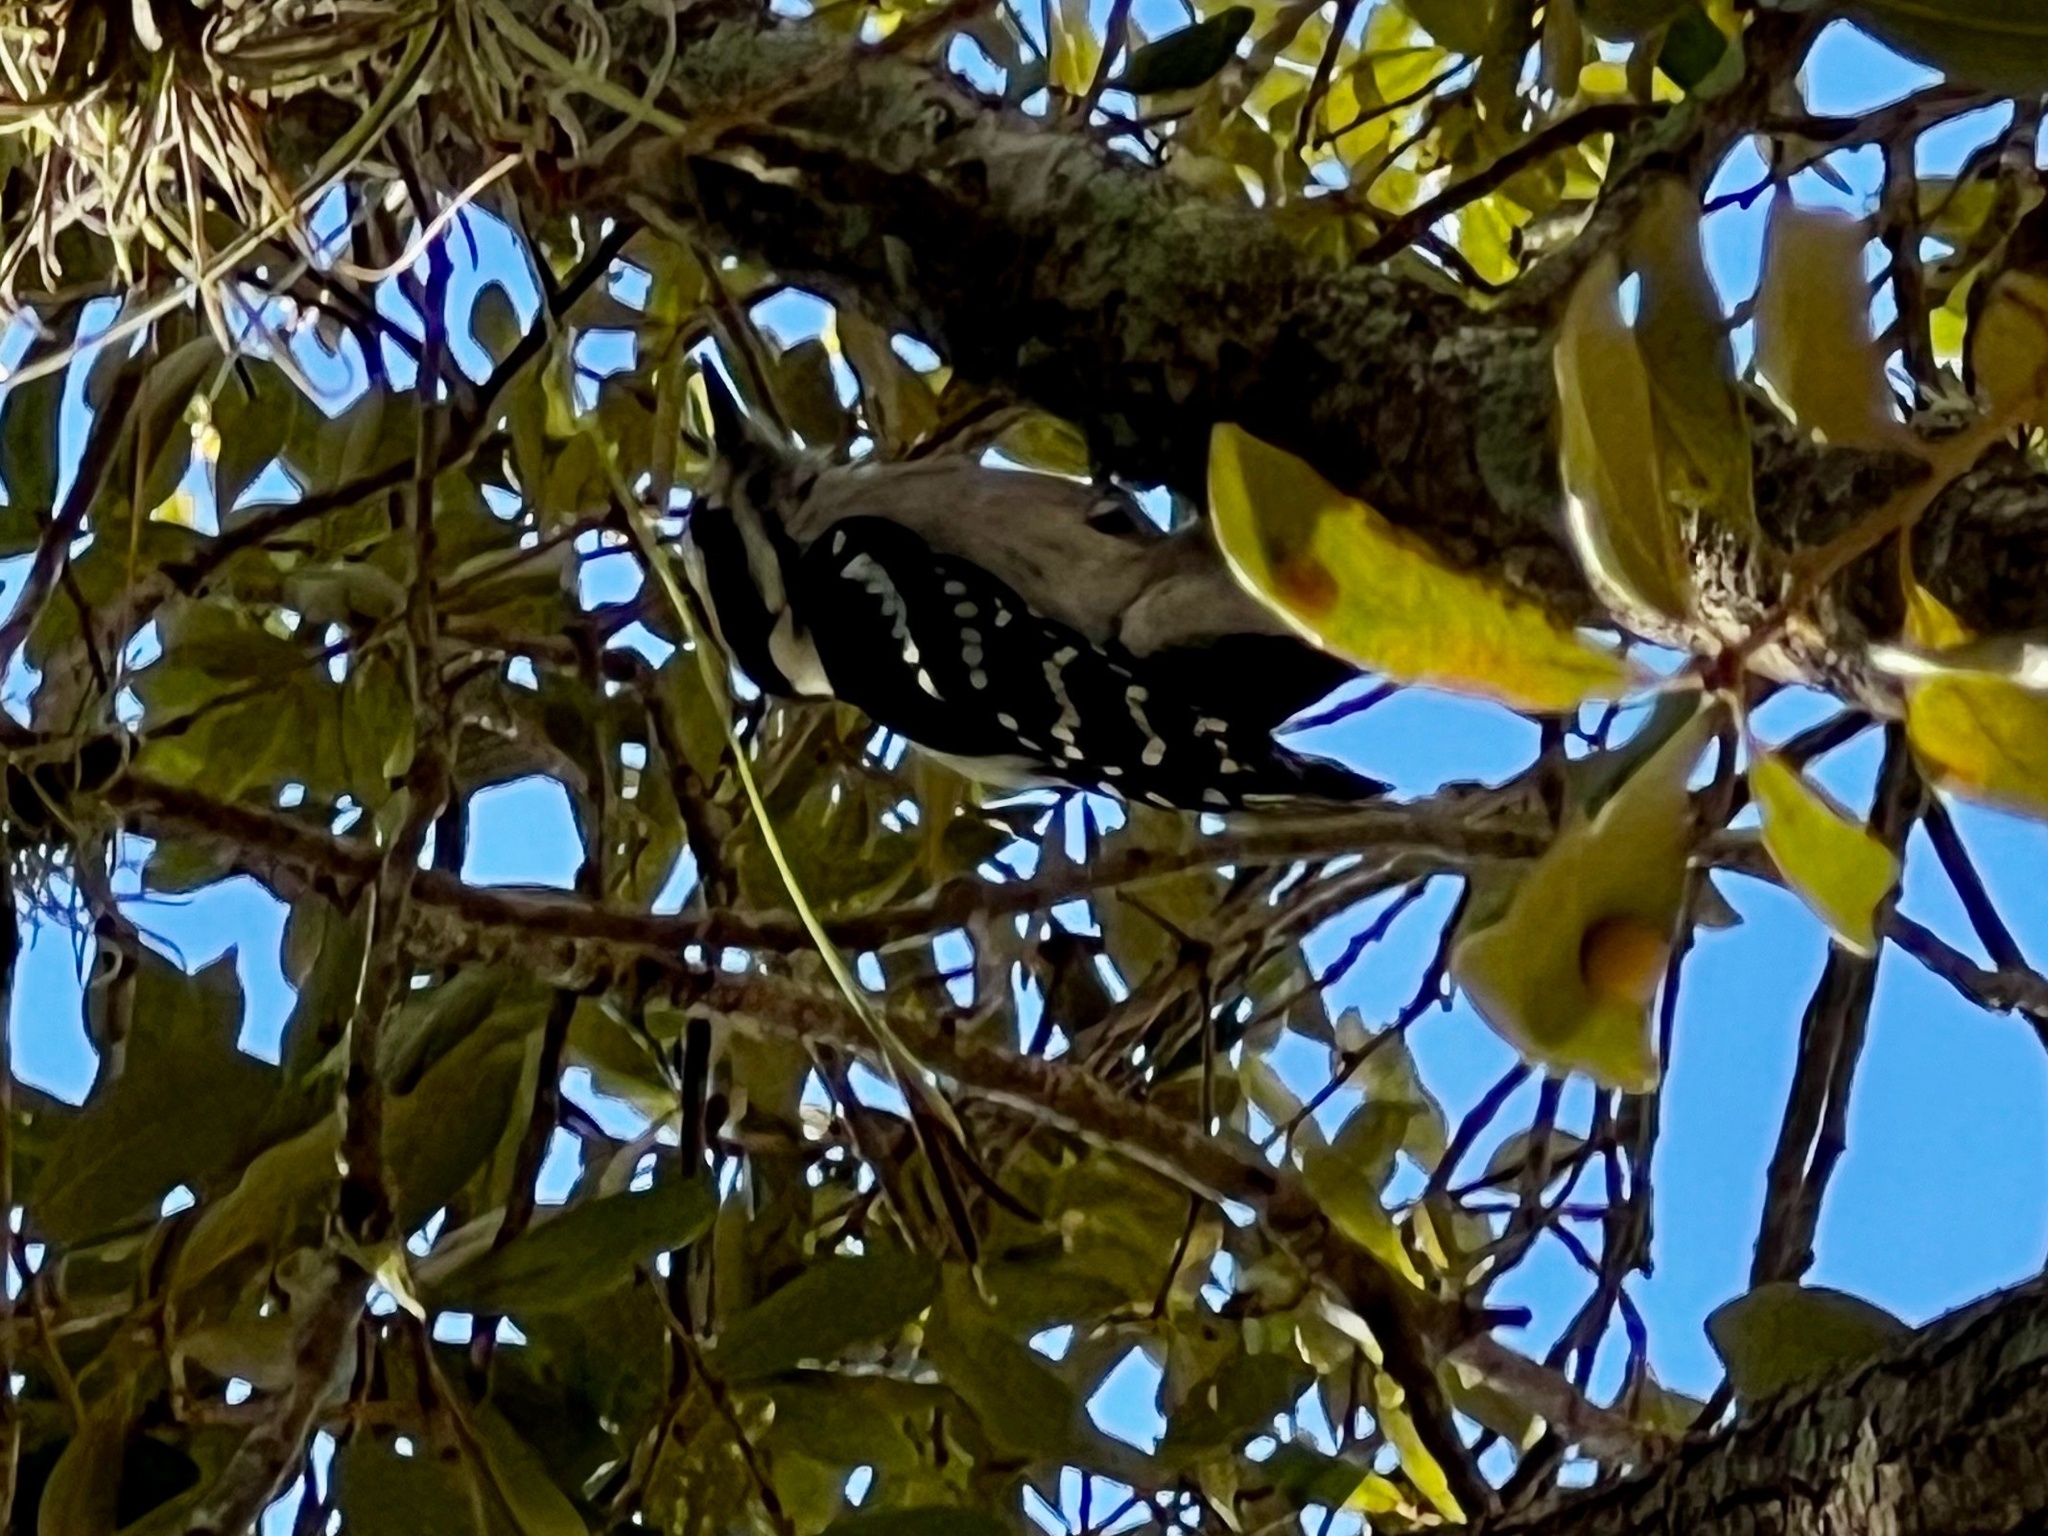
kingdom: Animalia
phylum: Chordata
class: Aves
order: Piciformes
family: Picidae
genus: Dryobates
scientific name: Dryobates pubescens
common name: Downy woodpecker
